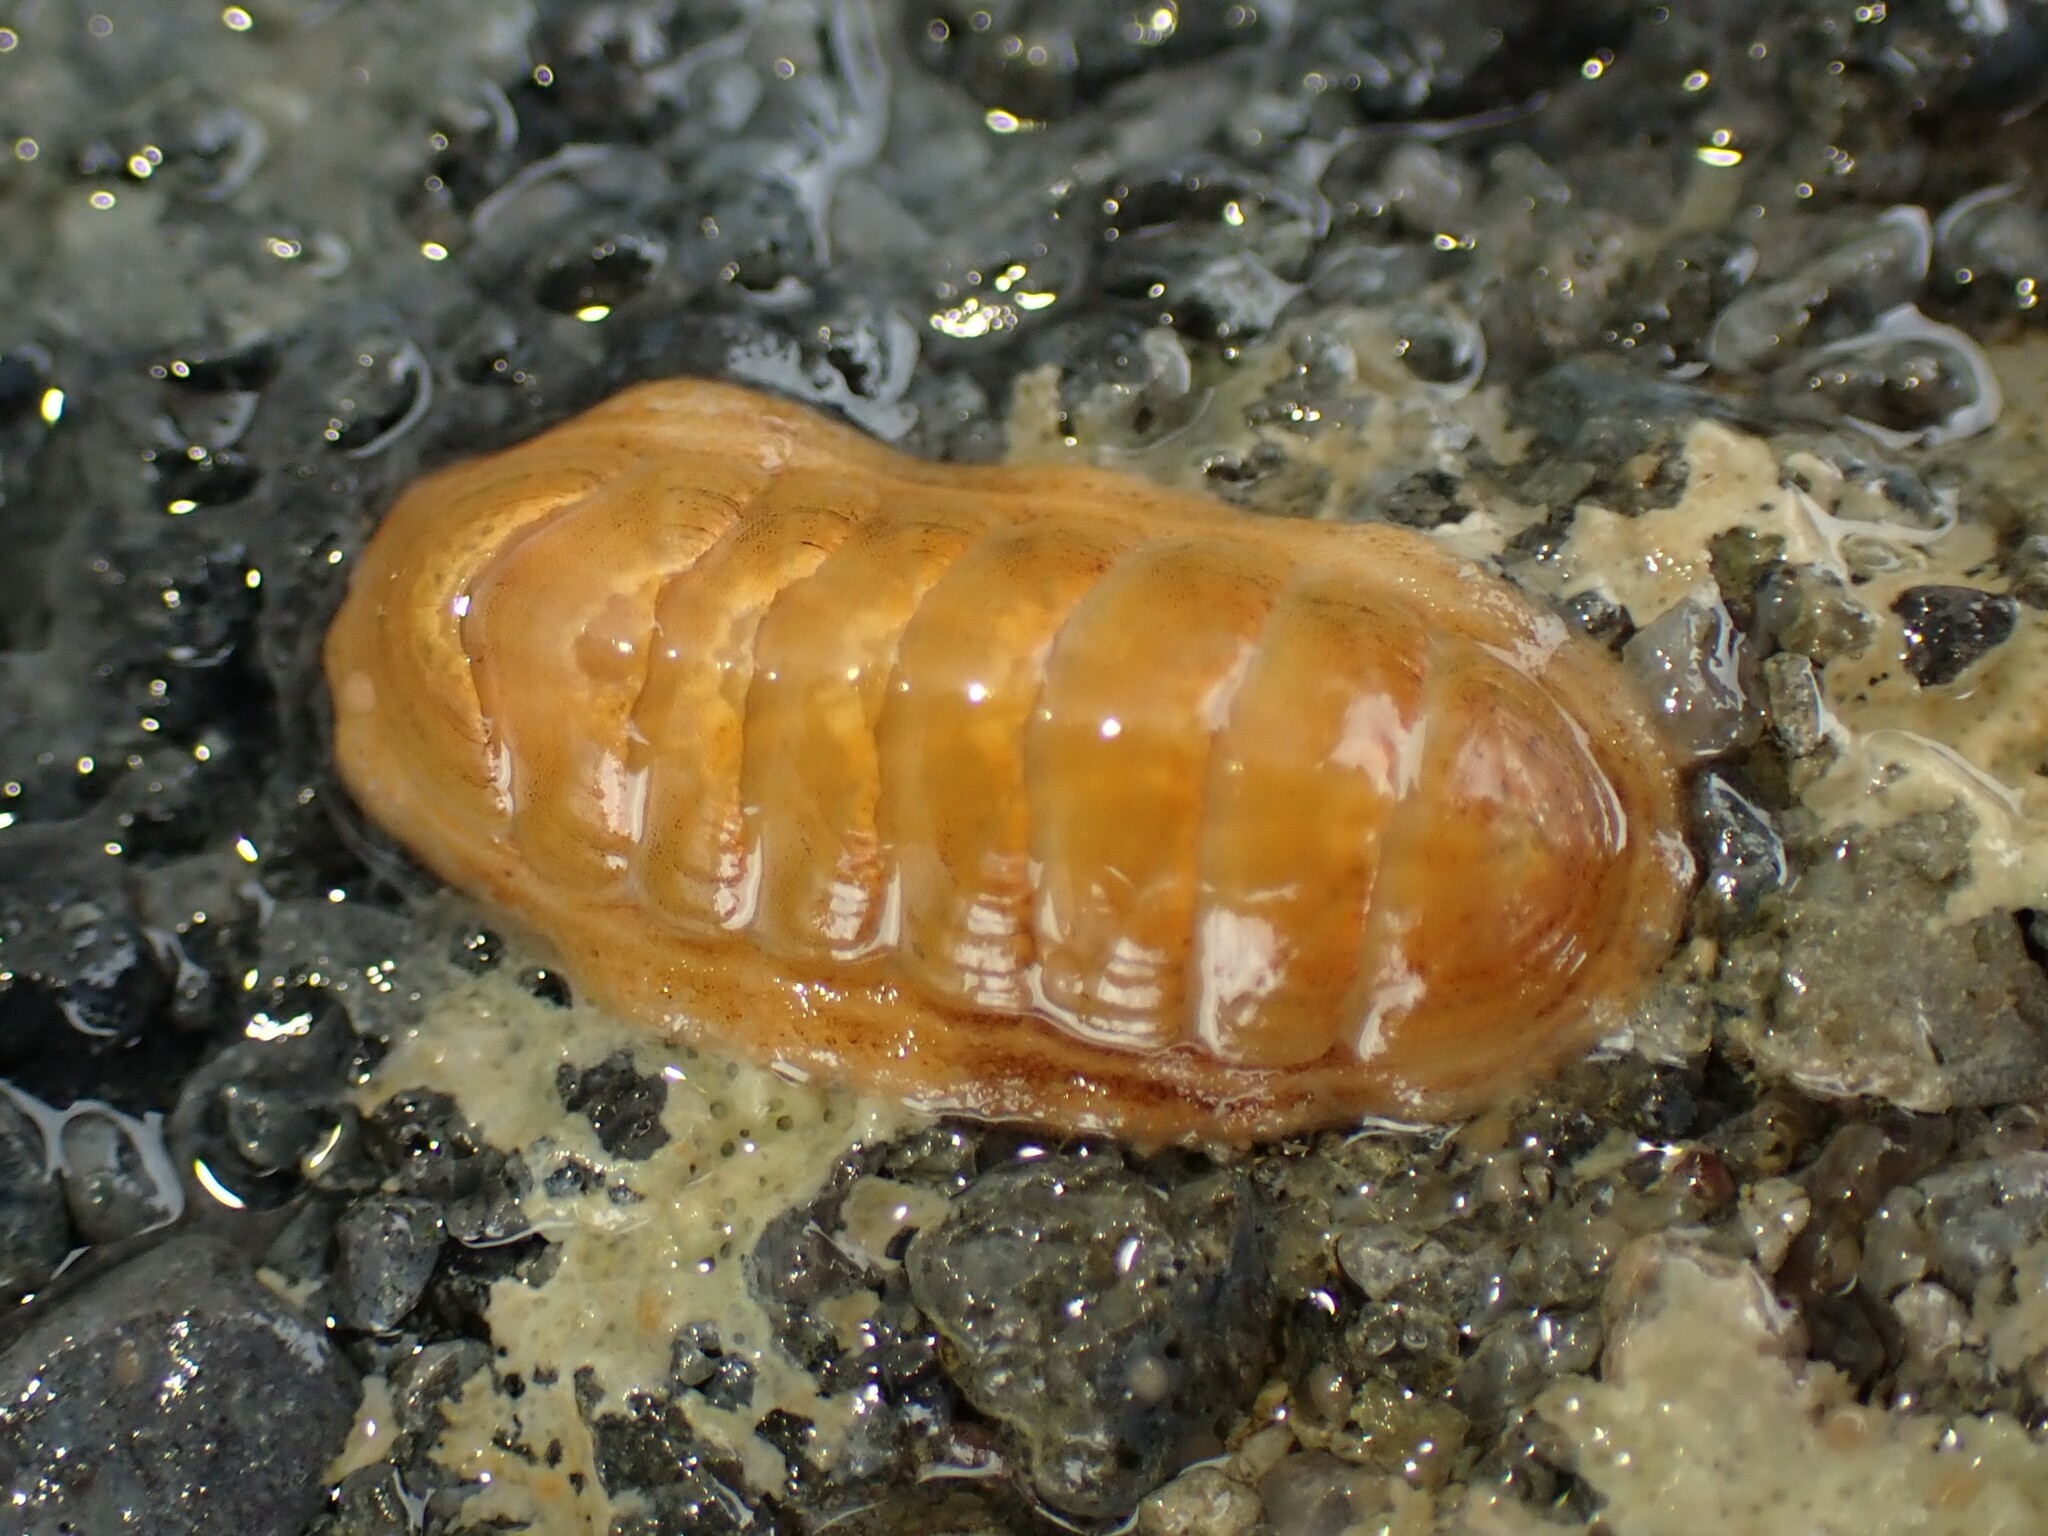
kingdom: Animalia
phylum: Mollusca
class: Polyplacophora
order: Chitonida
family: Ischnochitonidae
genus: Ischnochiton
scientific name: Ischnochiton circumvallatus
